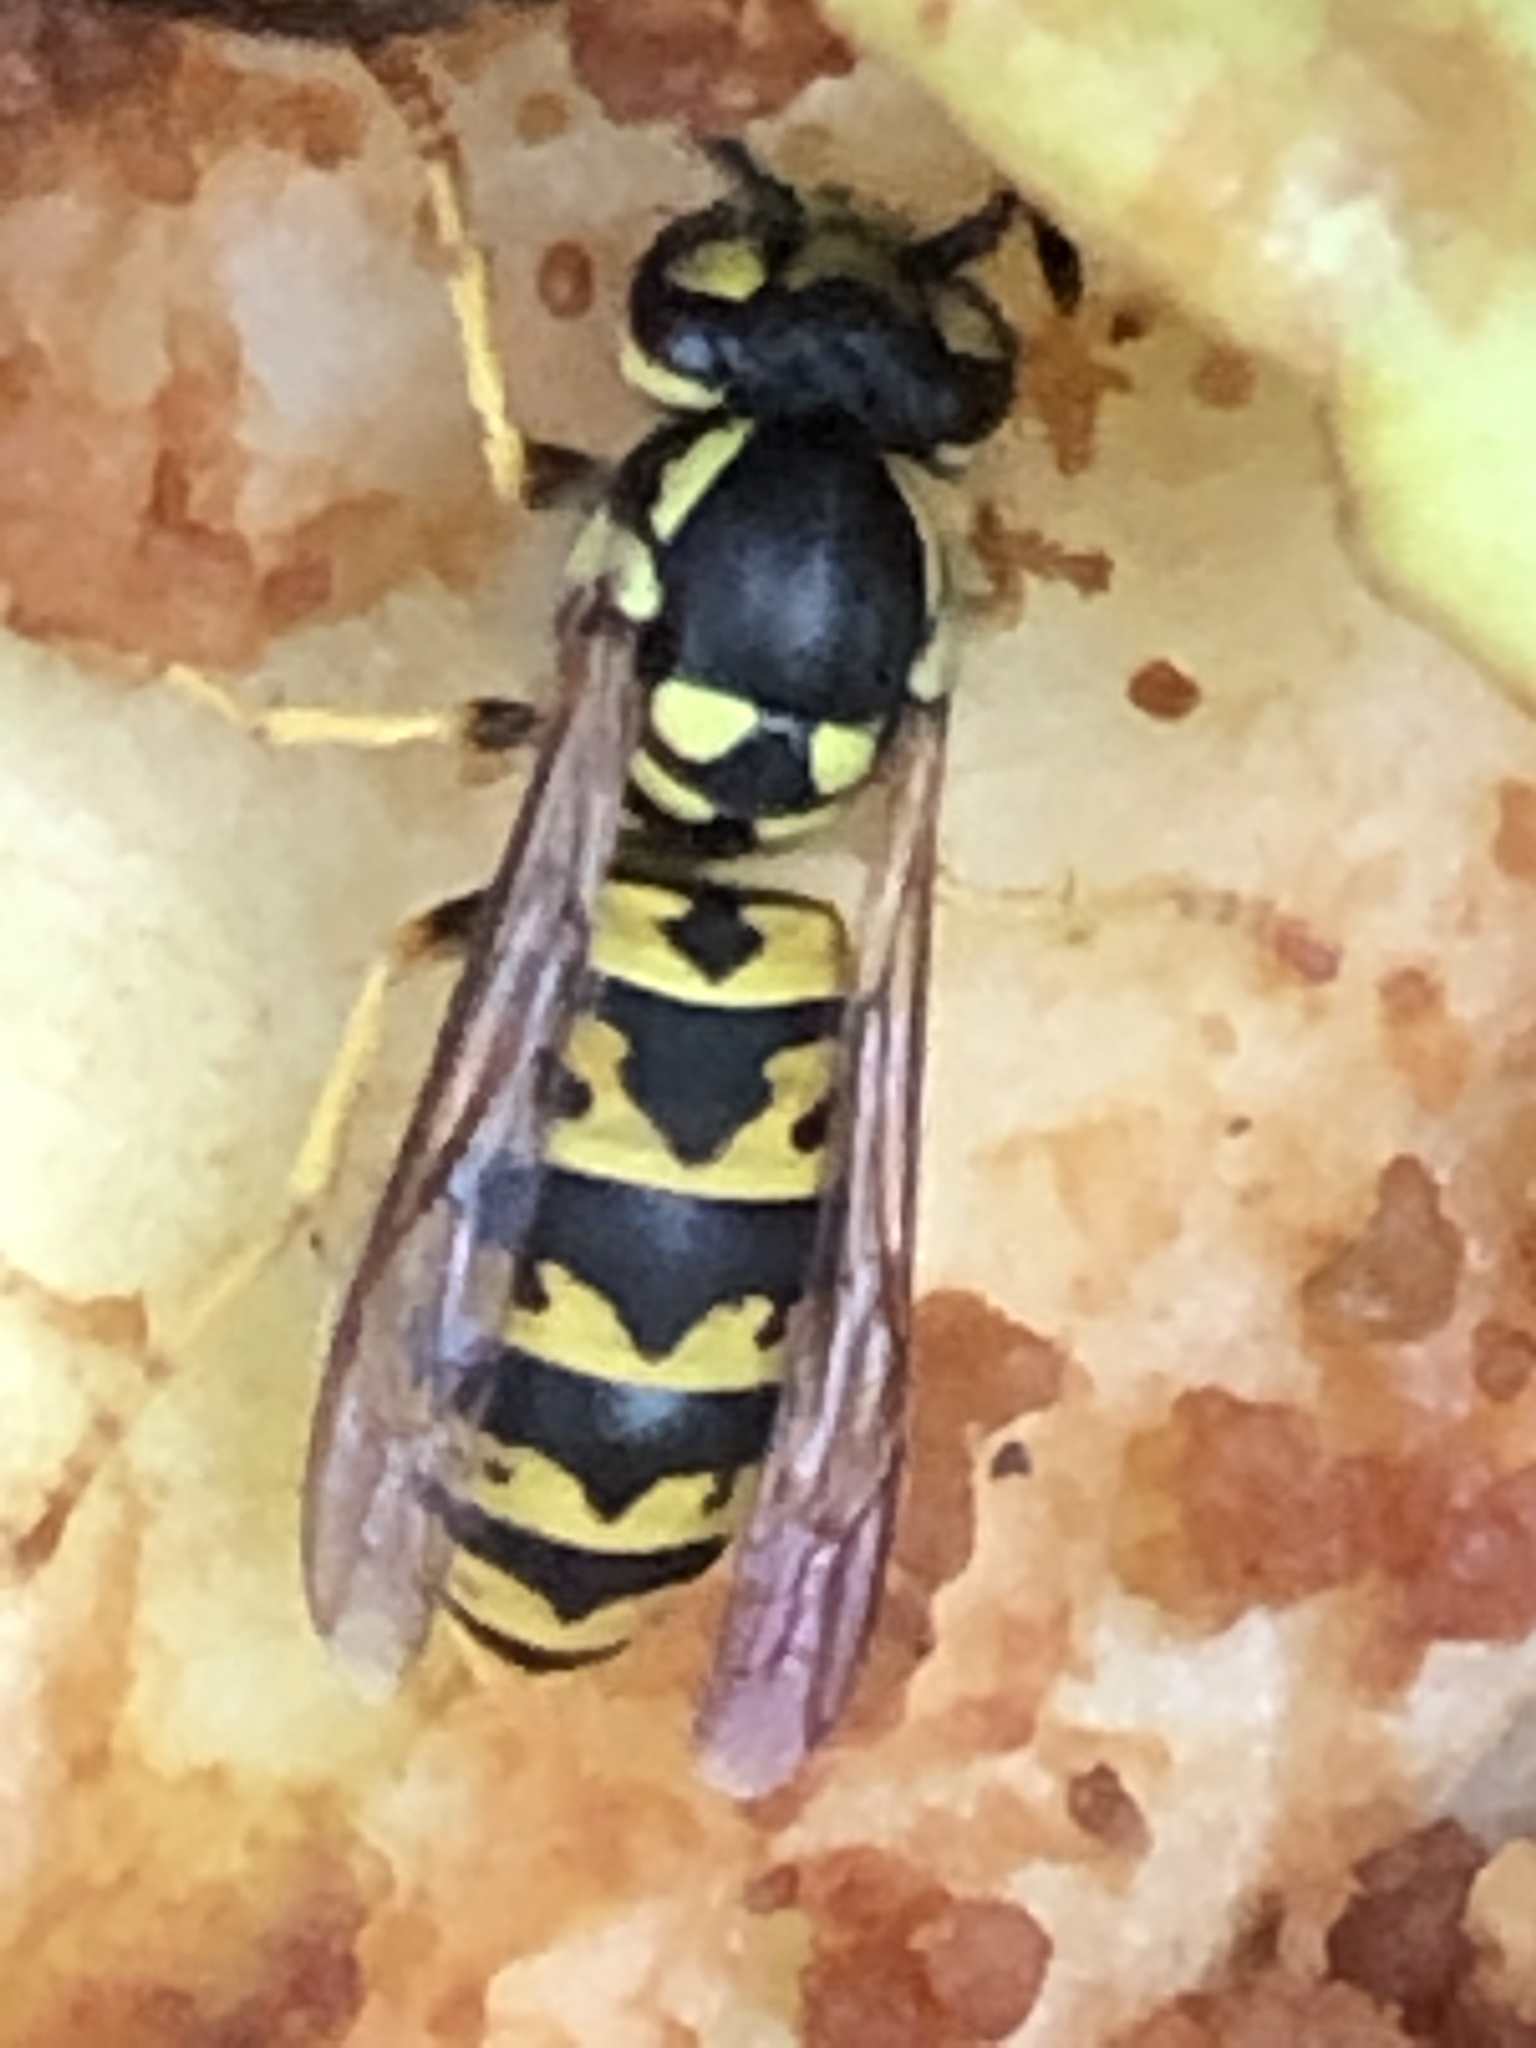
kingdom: Animalia
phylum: Arthropoda
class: Insecta
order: Hymenoptera
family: Vespidae
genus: Vespula
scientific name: Vespula germanica
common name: German wasp
